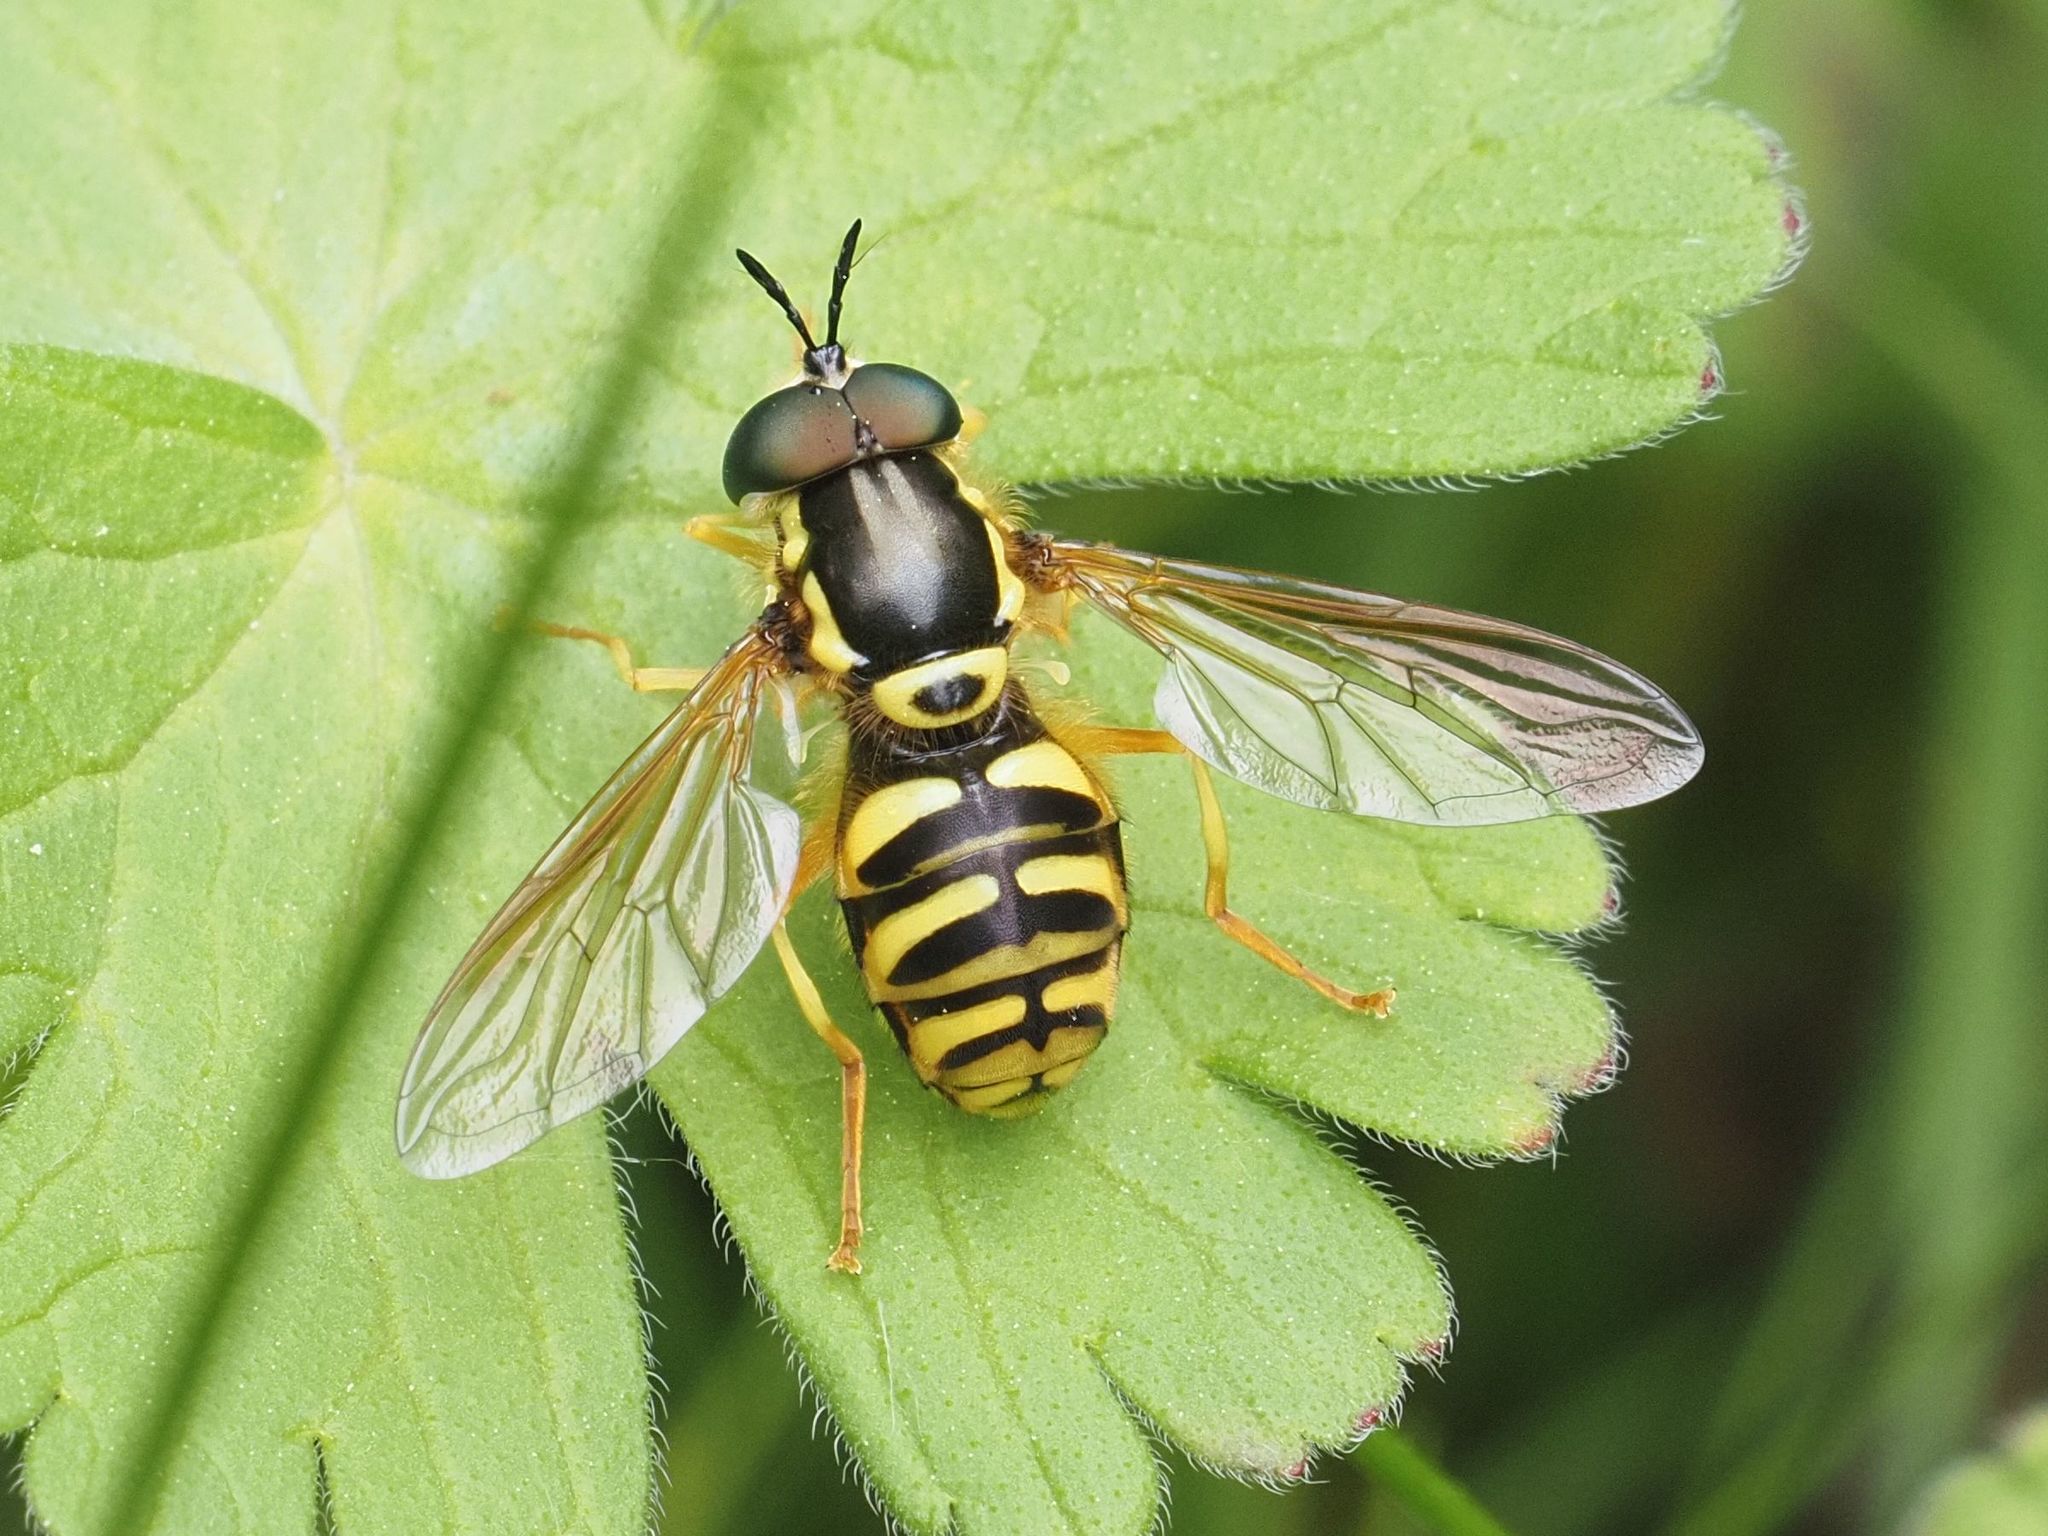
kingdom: Animalia
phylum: Arthropoda
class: Insecta
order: Diptera
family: Syrphidae
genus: Chrysotoxum
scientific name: Chrysotoxum octomaculatum
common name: Broken-banded wasp-hoverfly
